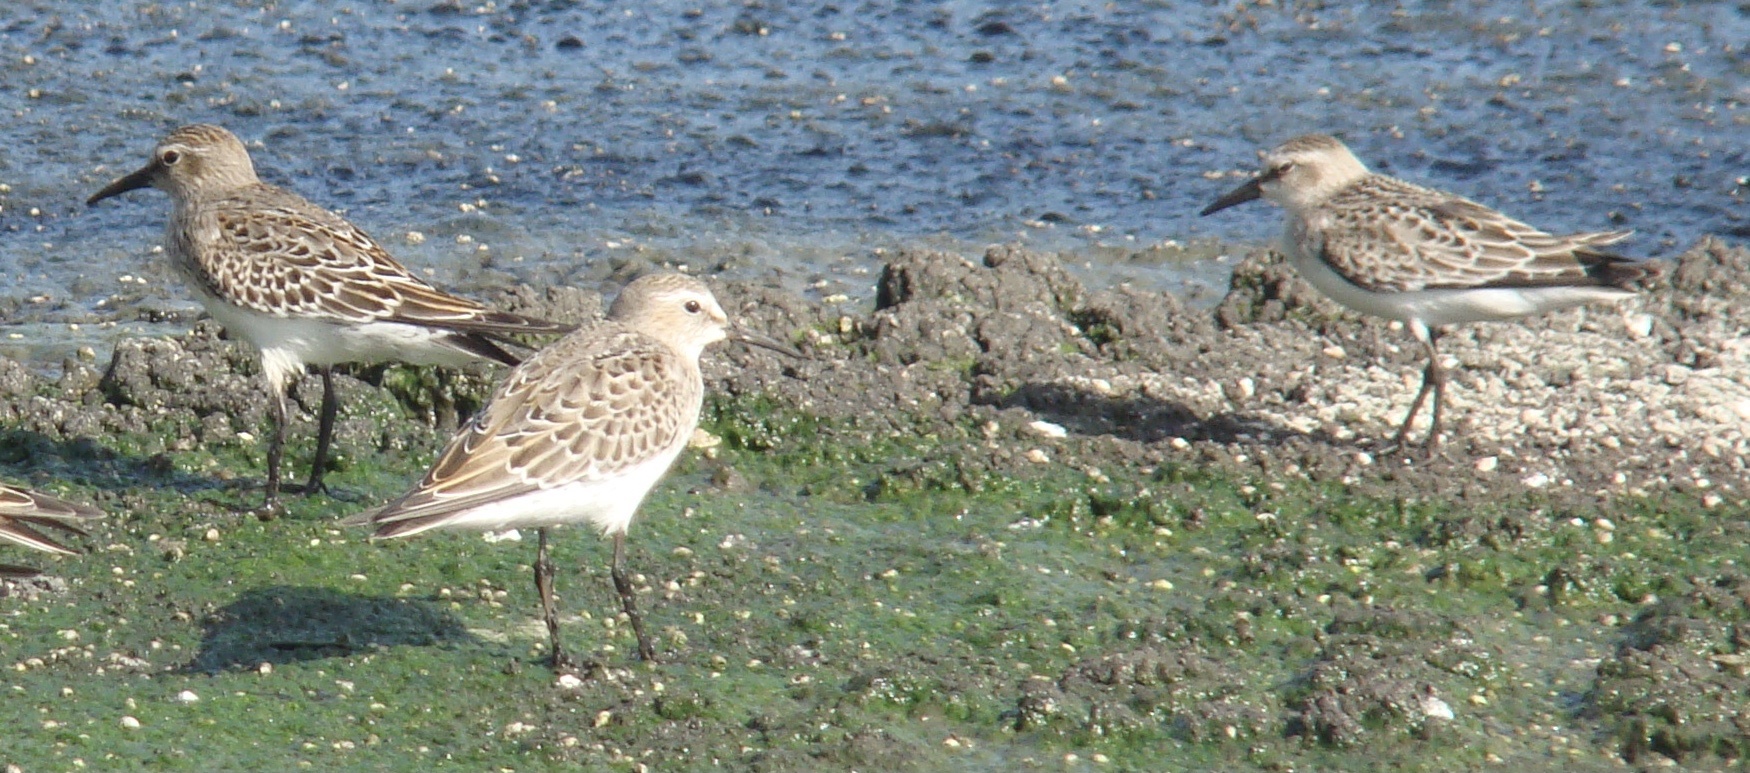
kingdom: Animalia
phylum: Chordata
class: Aves
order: Charadriiformes
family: Scolopacidae
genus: Calidris
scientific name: Calidris fuscicollis
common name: White-rumped sandpiper
